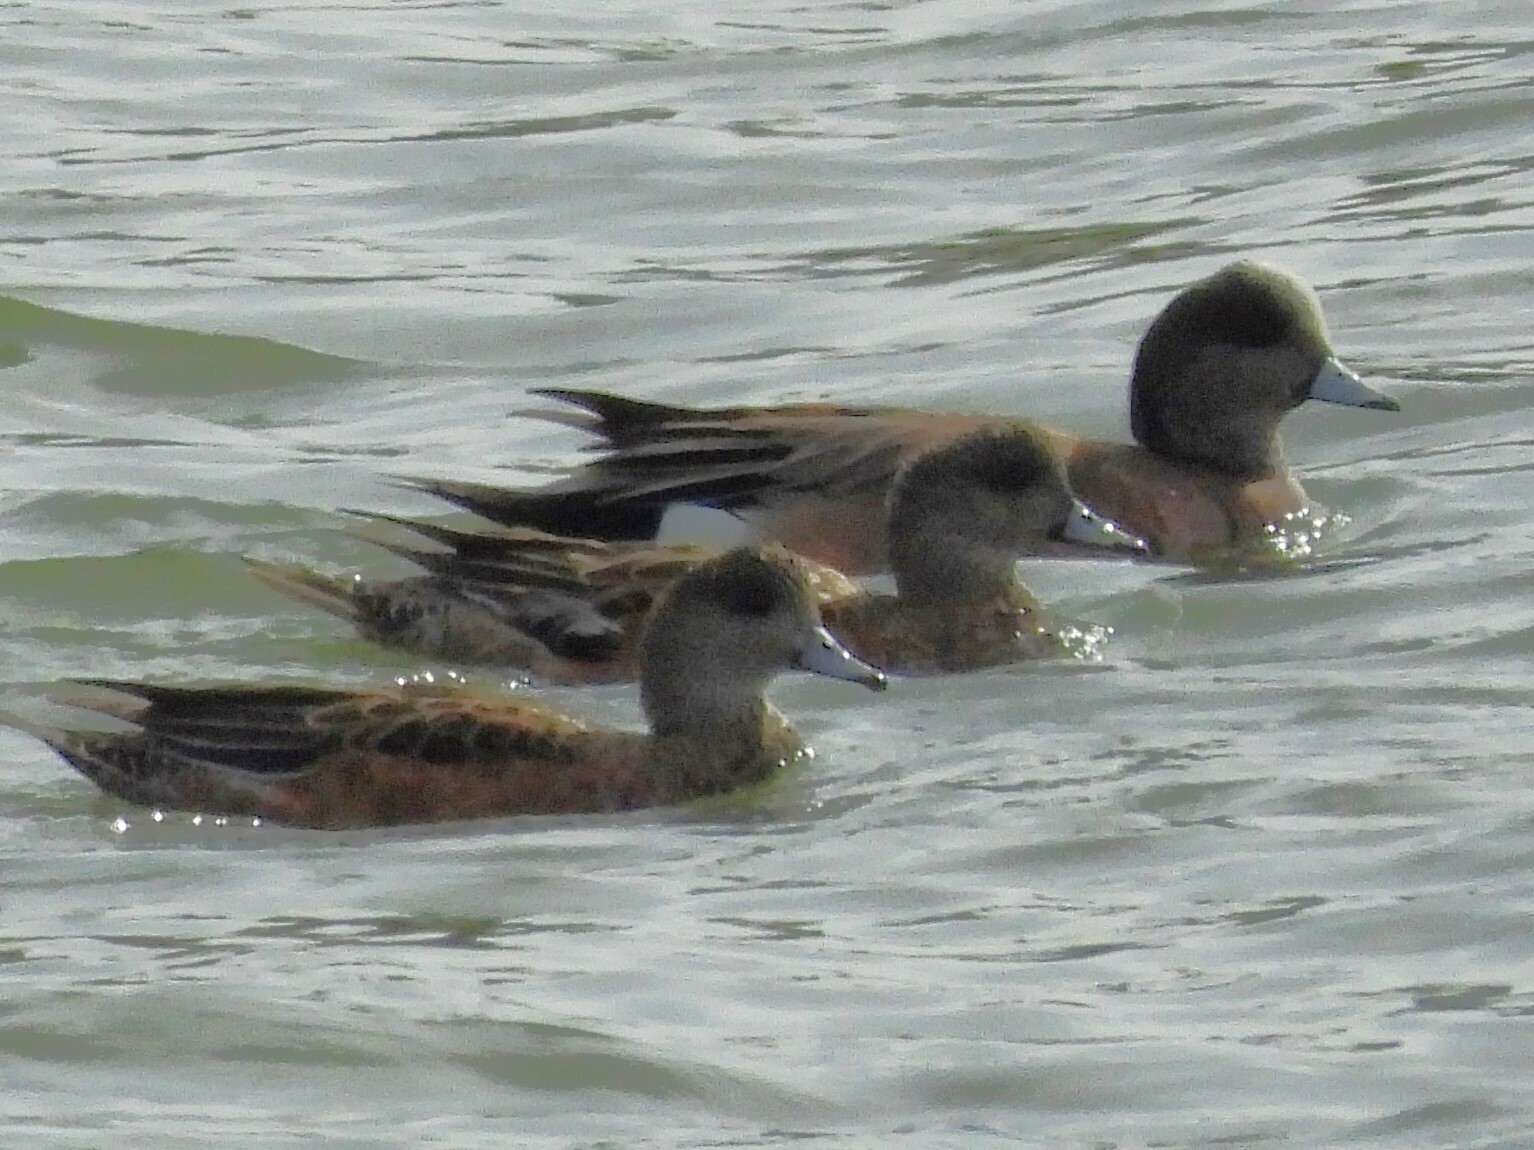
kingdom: Animalia
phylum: Chordata
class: Aves
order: Anseriformes
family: Anatidae
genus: Mareca
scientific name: Mareca americana
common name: American wigeon
